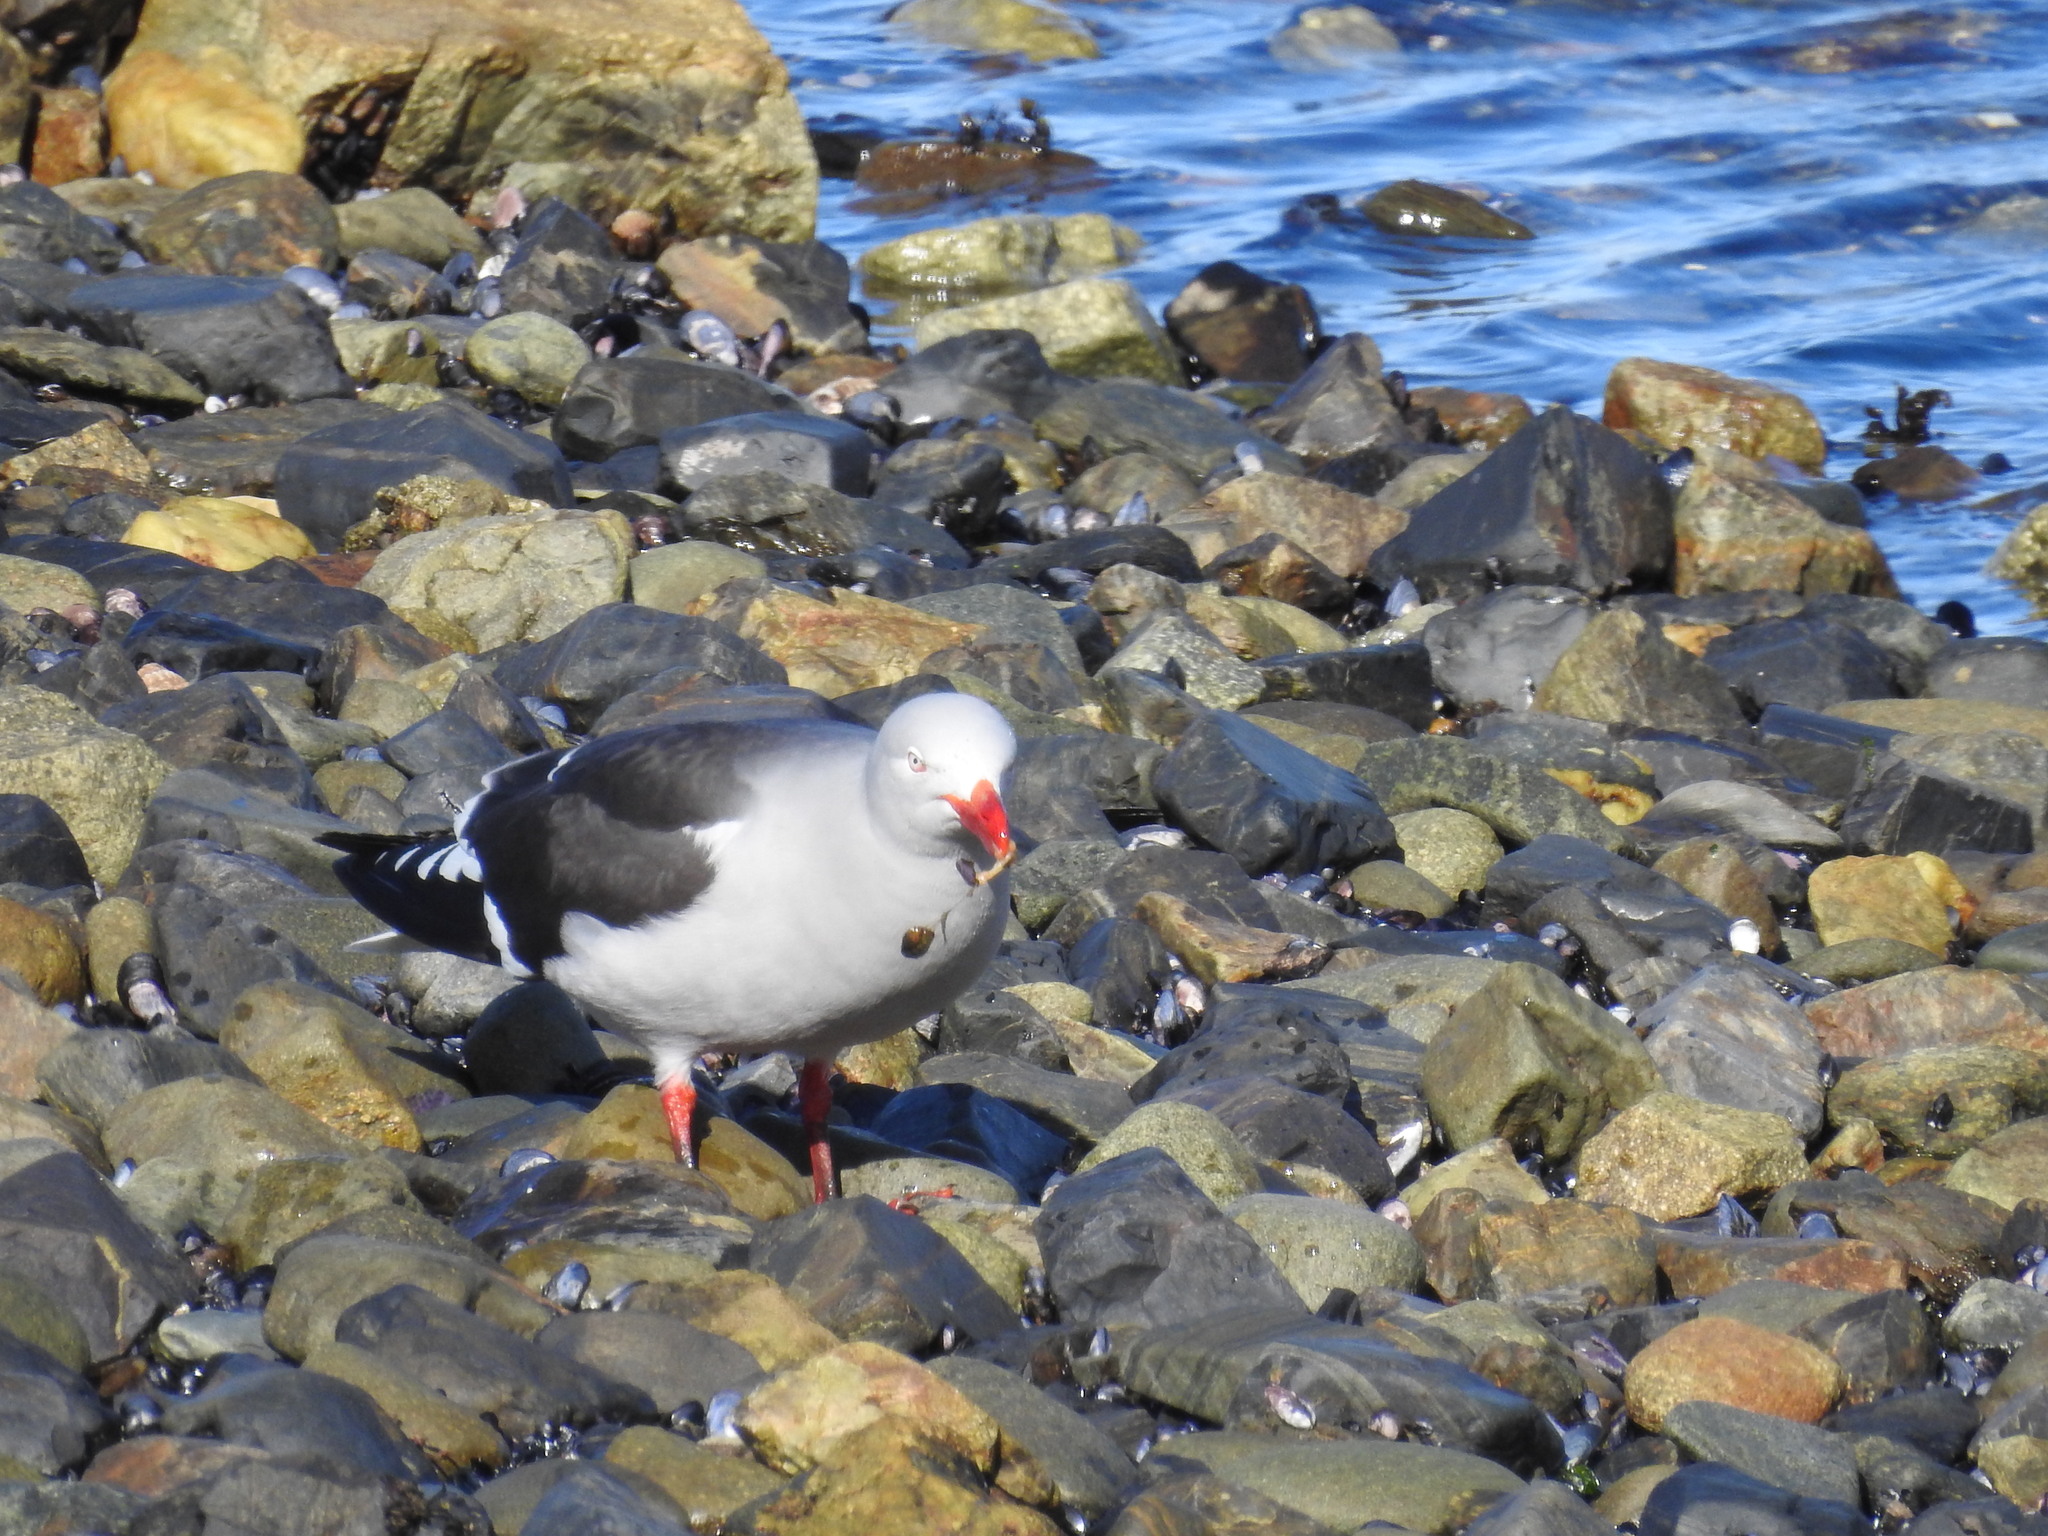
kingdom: Animalia
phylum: Chordata
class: Aves
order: Charadriiformes
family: Laridae
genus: Leucophaeus
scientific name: Leucophaeus scoresbii
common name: Dolphin gull
